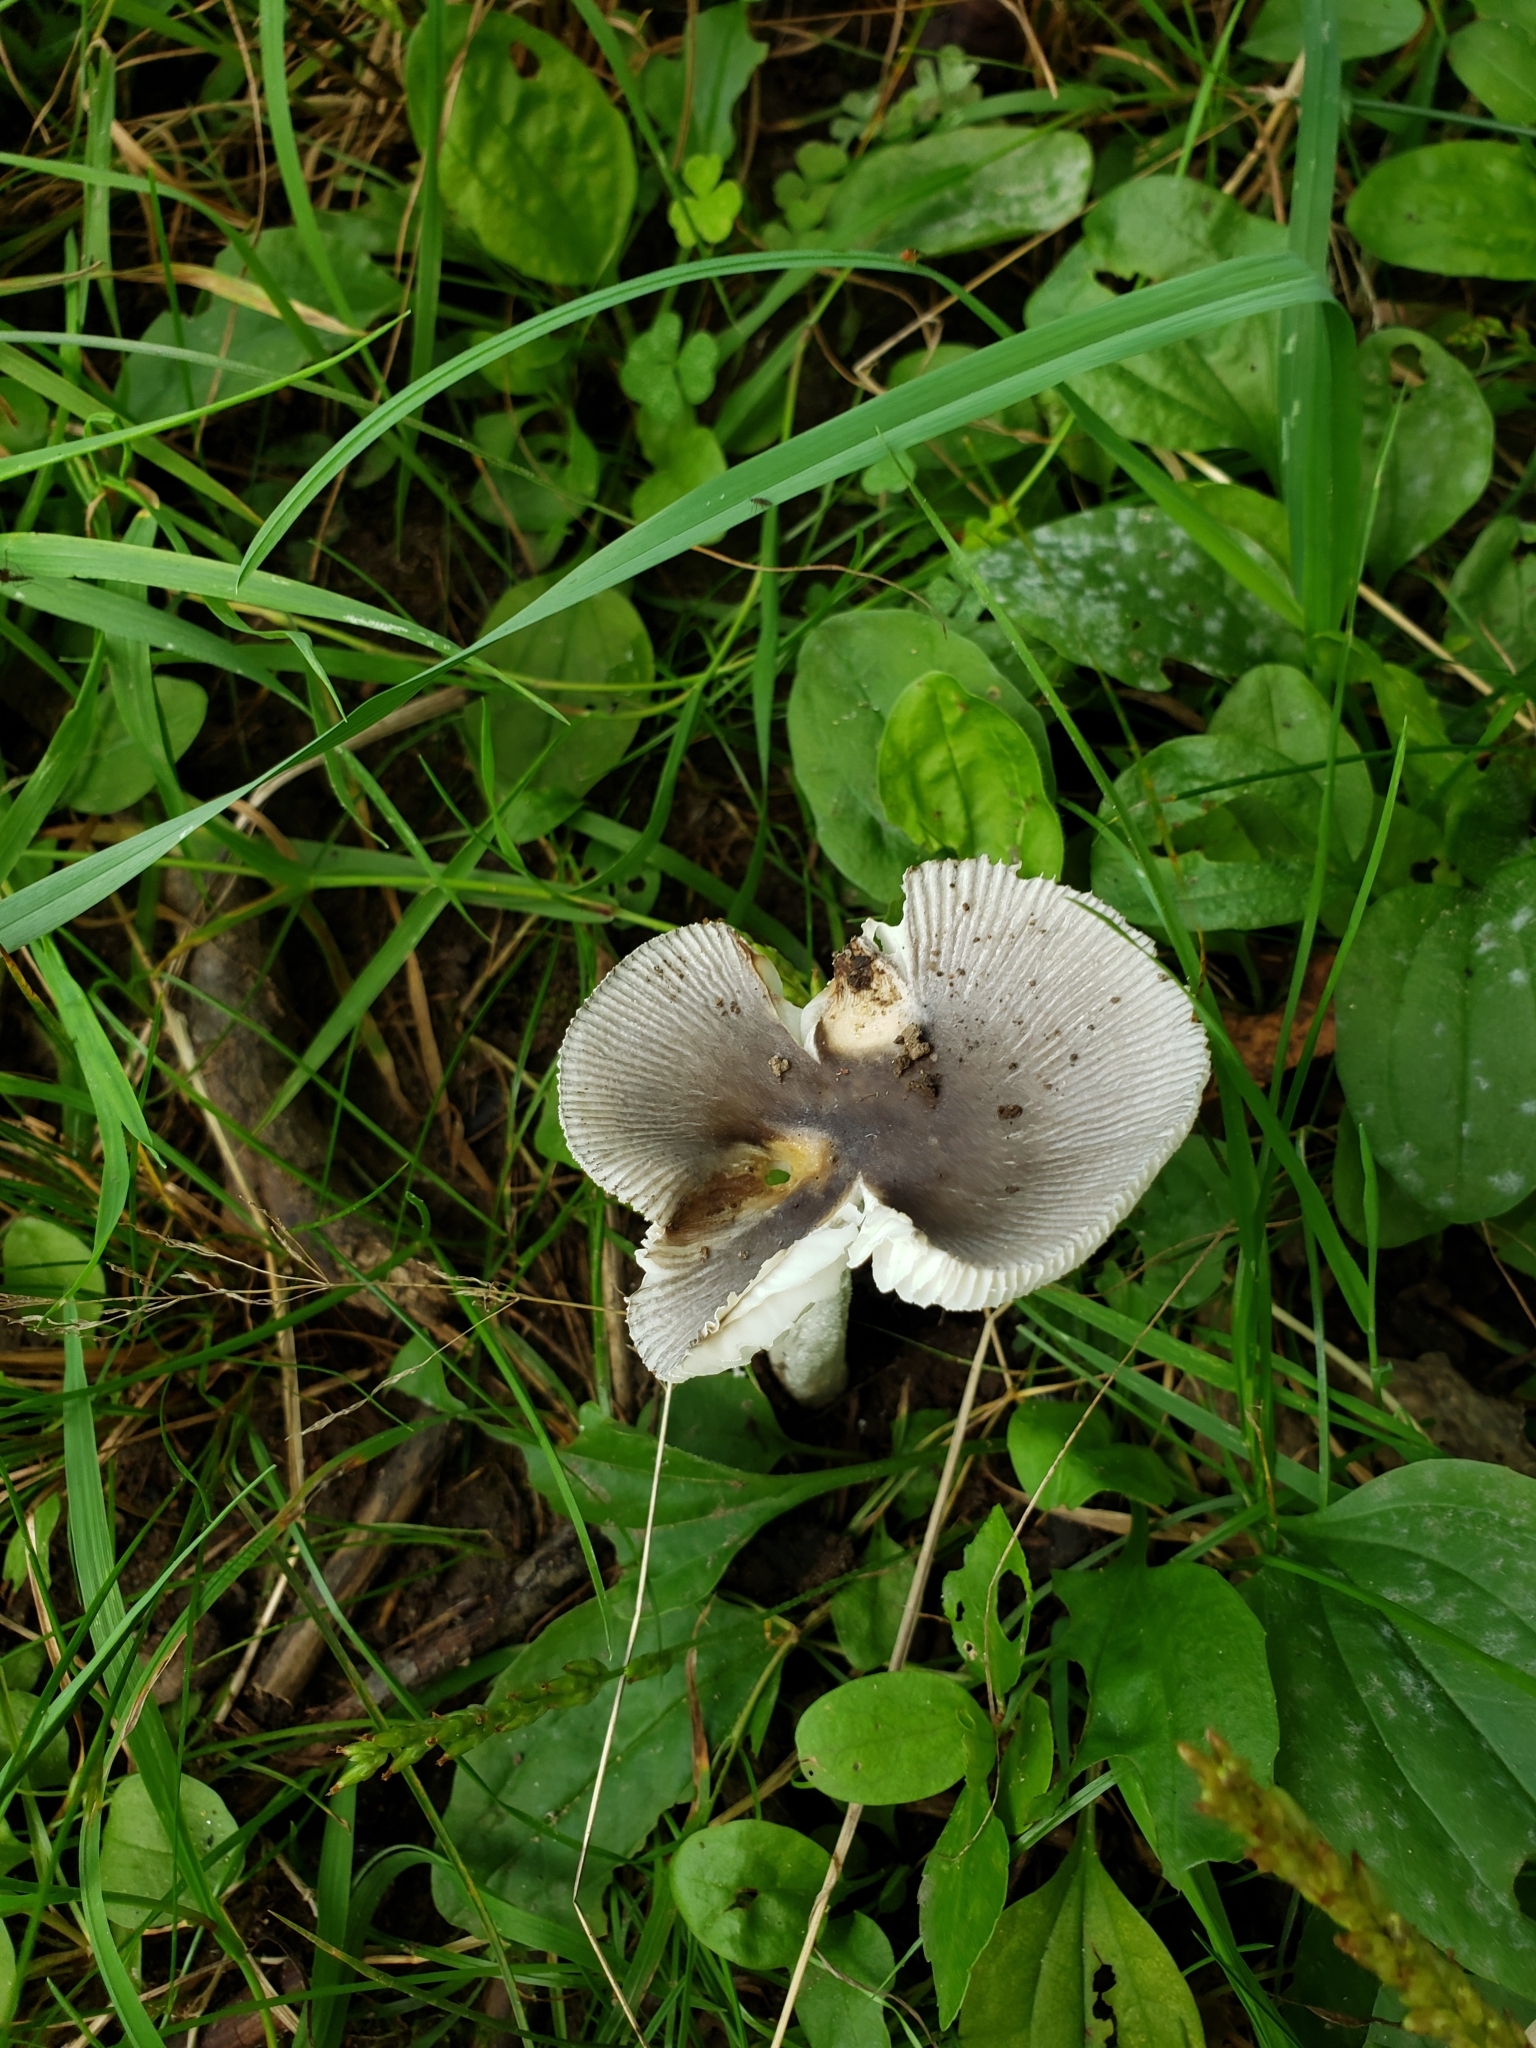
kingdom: Fungi
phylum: Basidiomycota
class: Agaricomycetes
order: Agaricales
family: Amanitaceae
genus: Amanita
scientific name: Amanita vaginata
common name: Grisette
